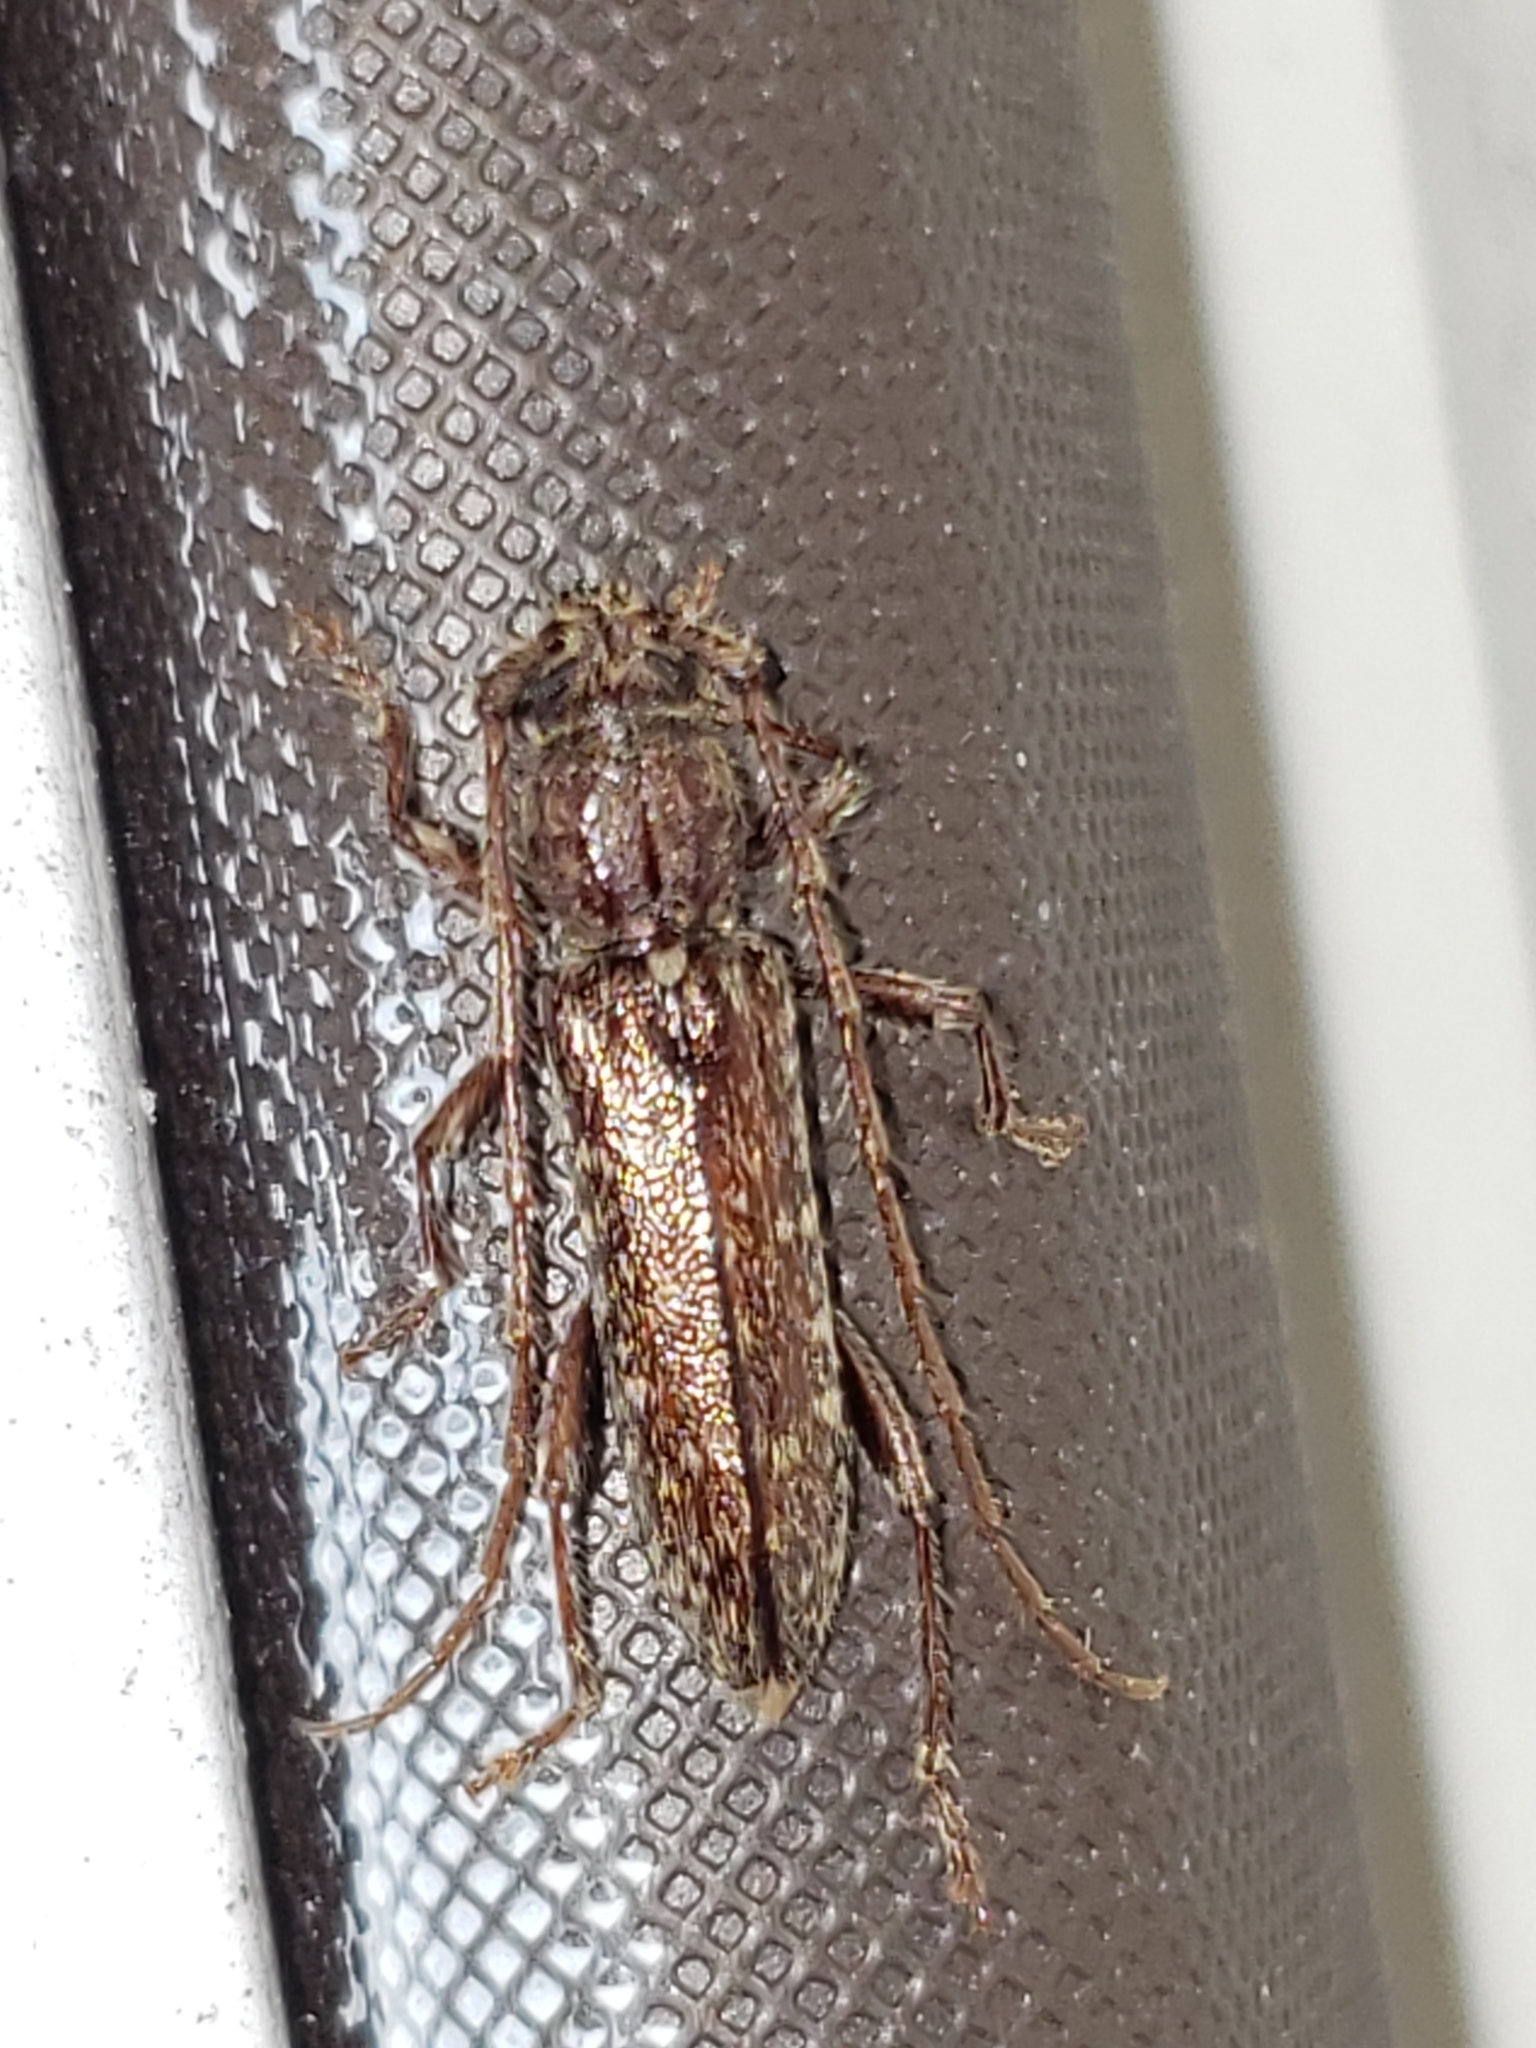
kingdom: Animalia
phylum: Arthropoda
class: Insecta
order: Coleoptera
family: Cerambycidae
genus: Anelaphus
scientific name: Anelaphus pumilus
